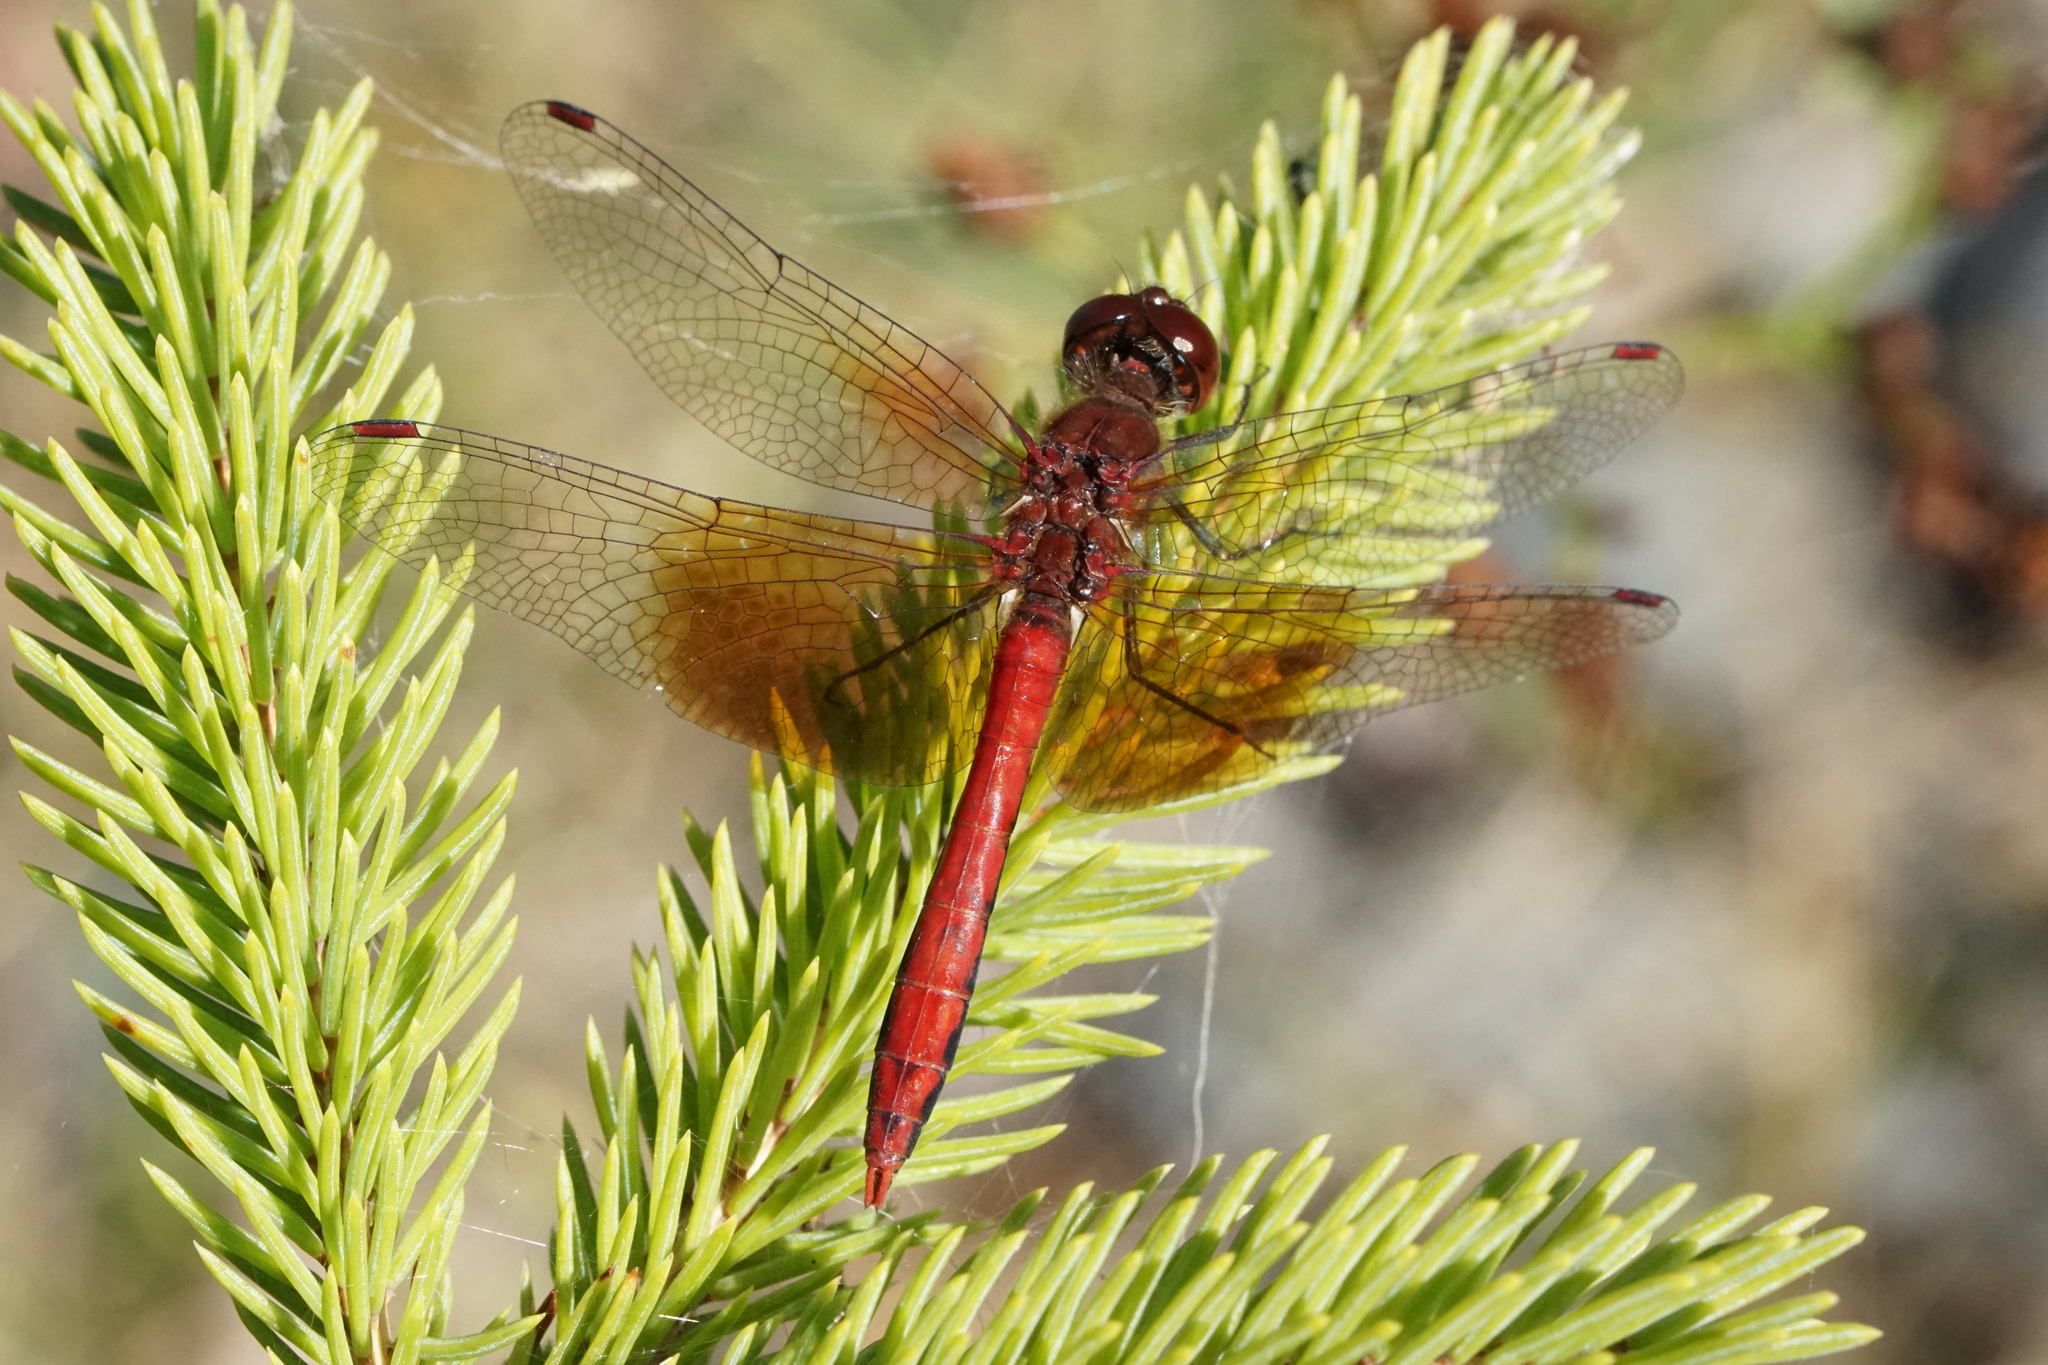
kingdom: Animalia
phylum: Arthropoda
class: Insecta
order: Odonata
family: Libellulidae
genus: Sympetrum
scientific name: Sympetrum semicinctum
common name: Band-winged meadowhawk
